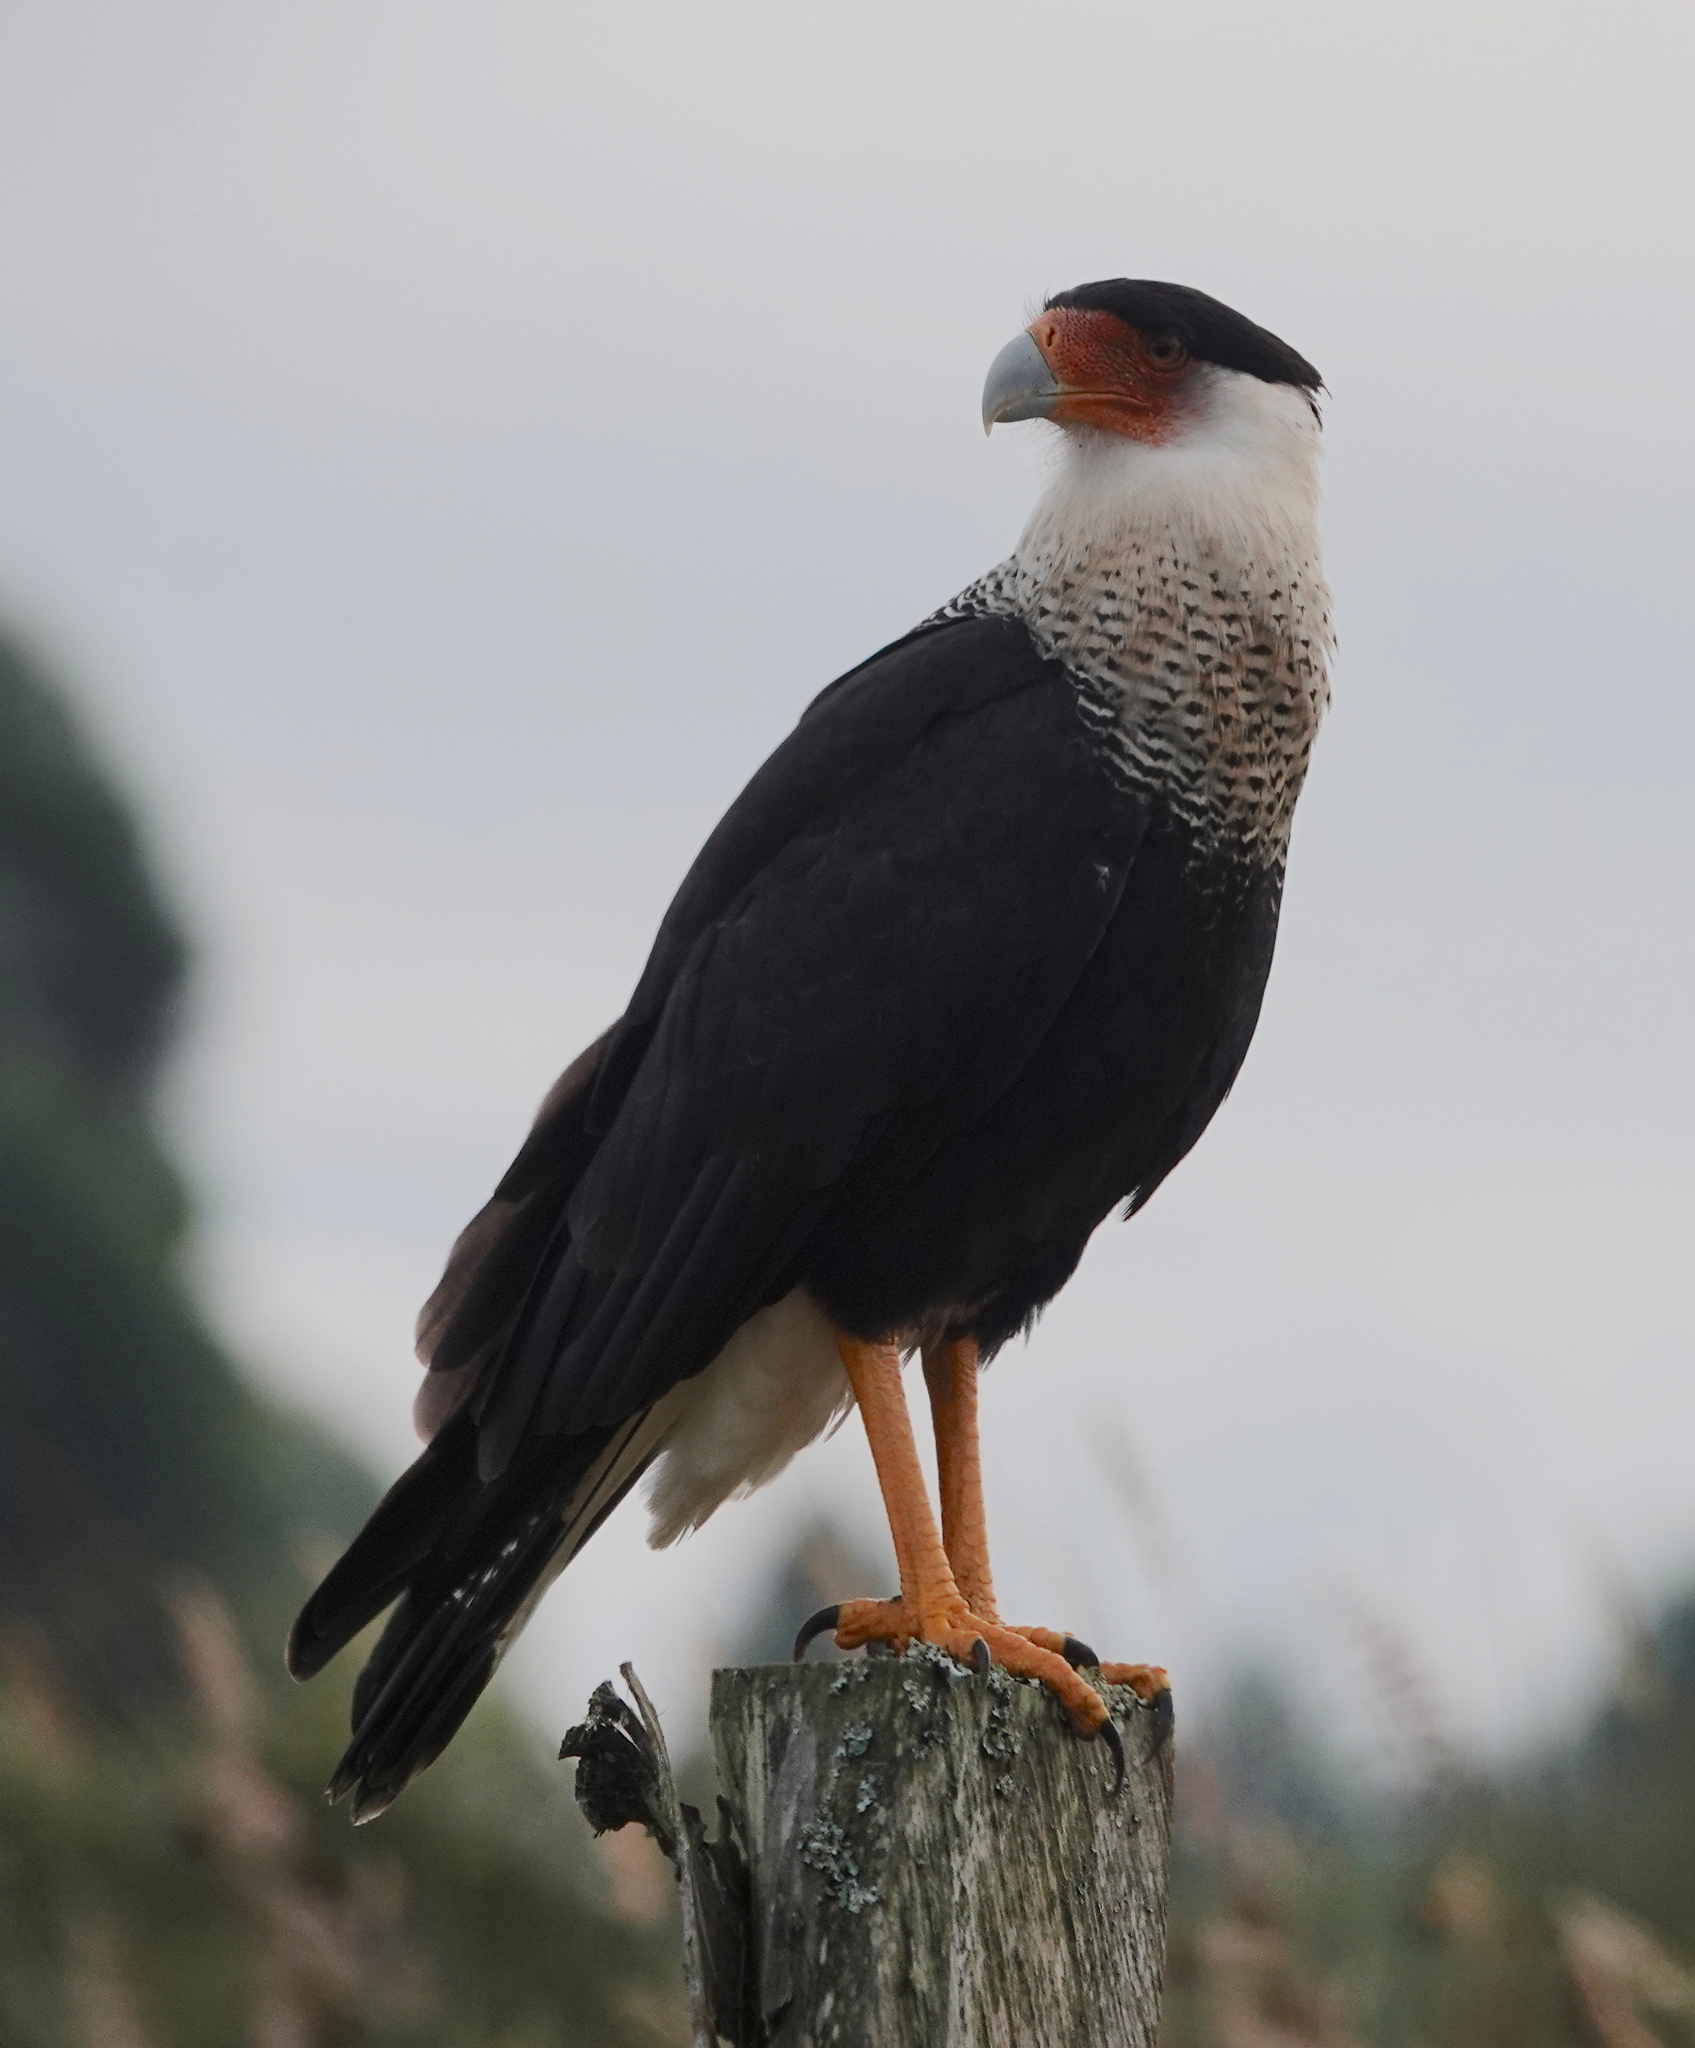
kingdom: Animalia
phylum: Chordata
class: Aves
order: Falconiformes
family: Falconidae
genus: Caracara
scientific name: Caracara plancus
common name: Southern caracara
